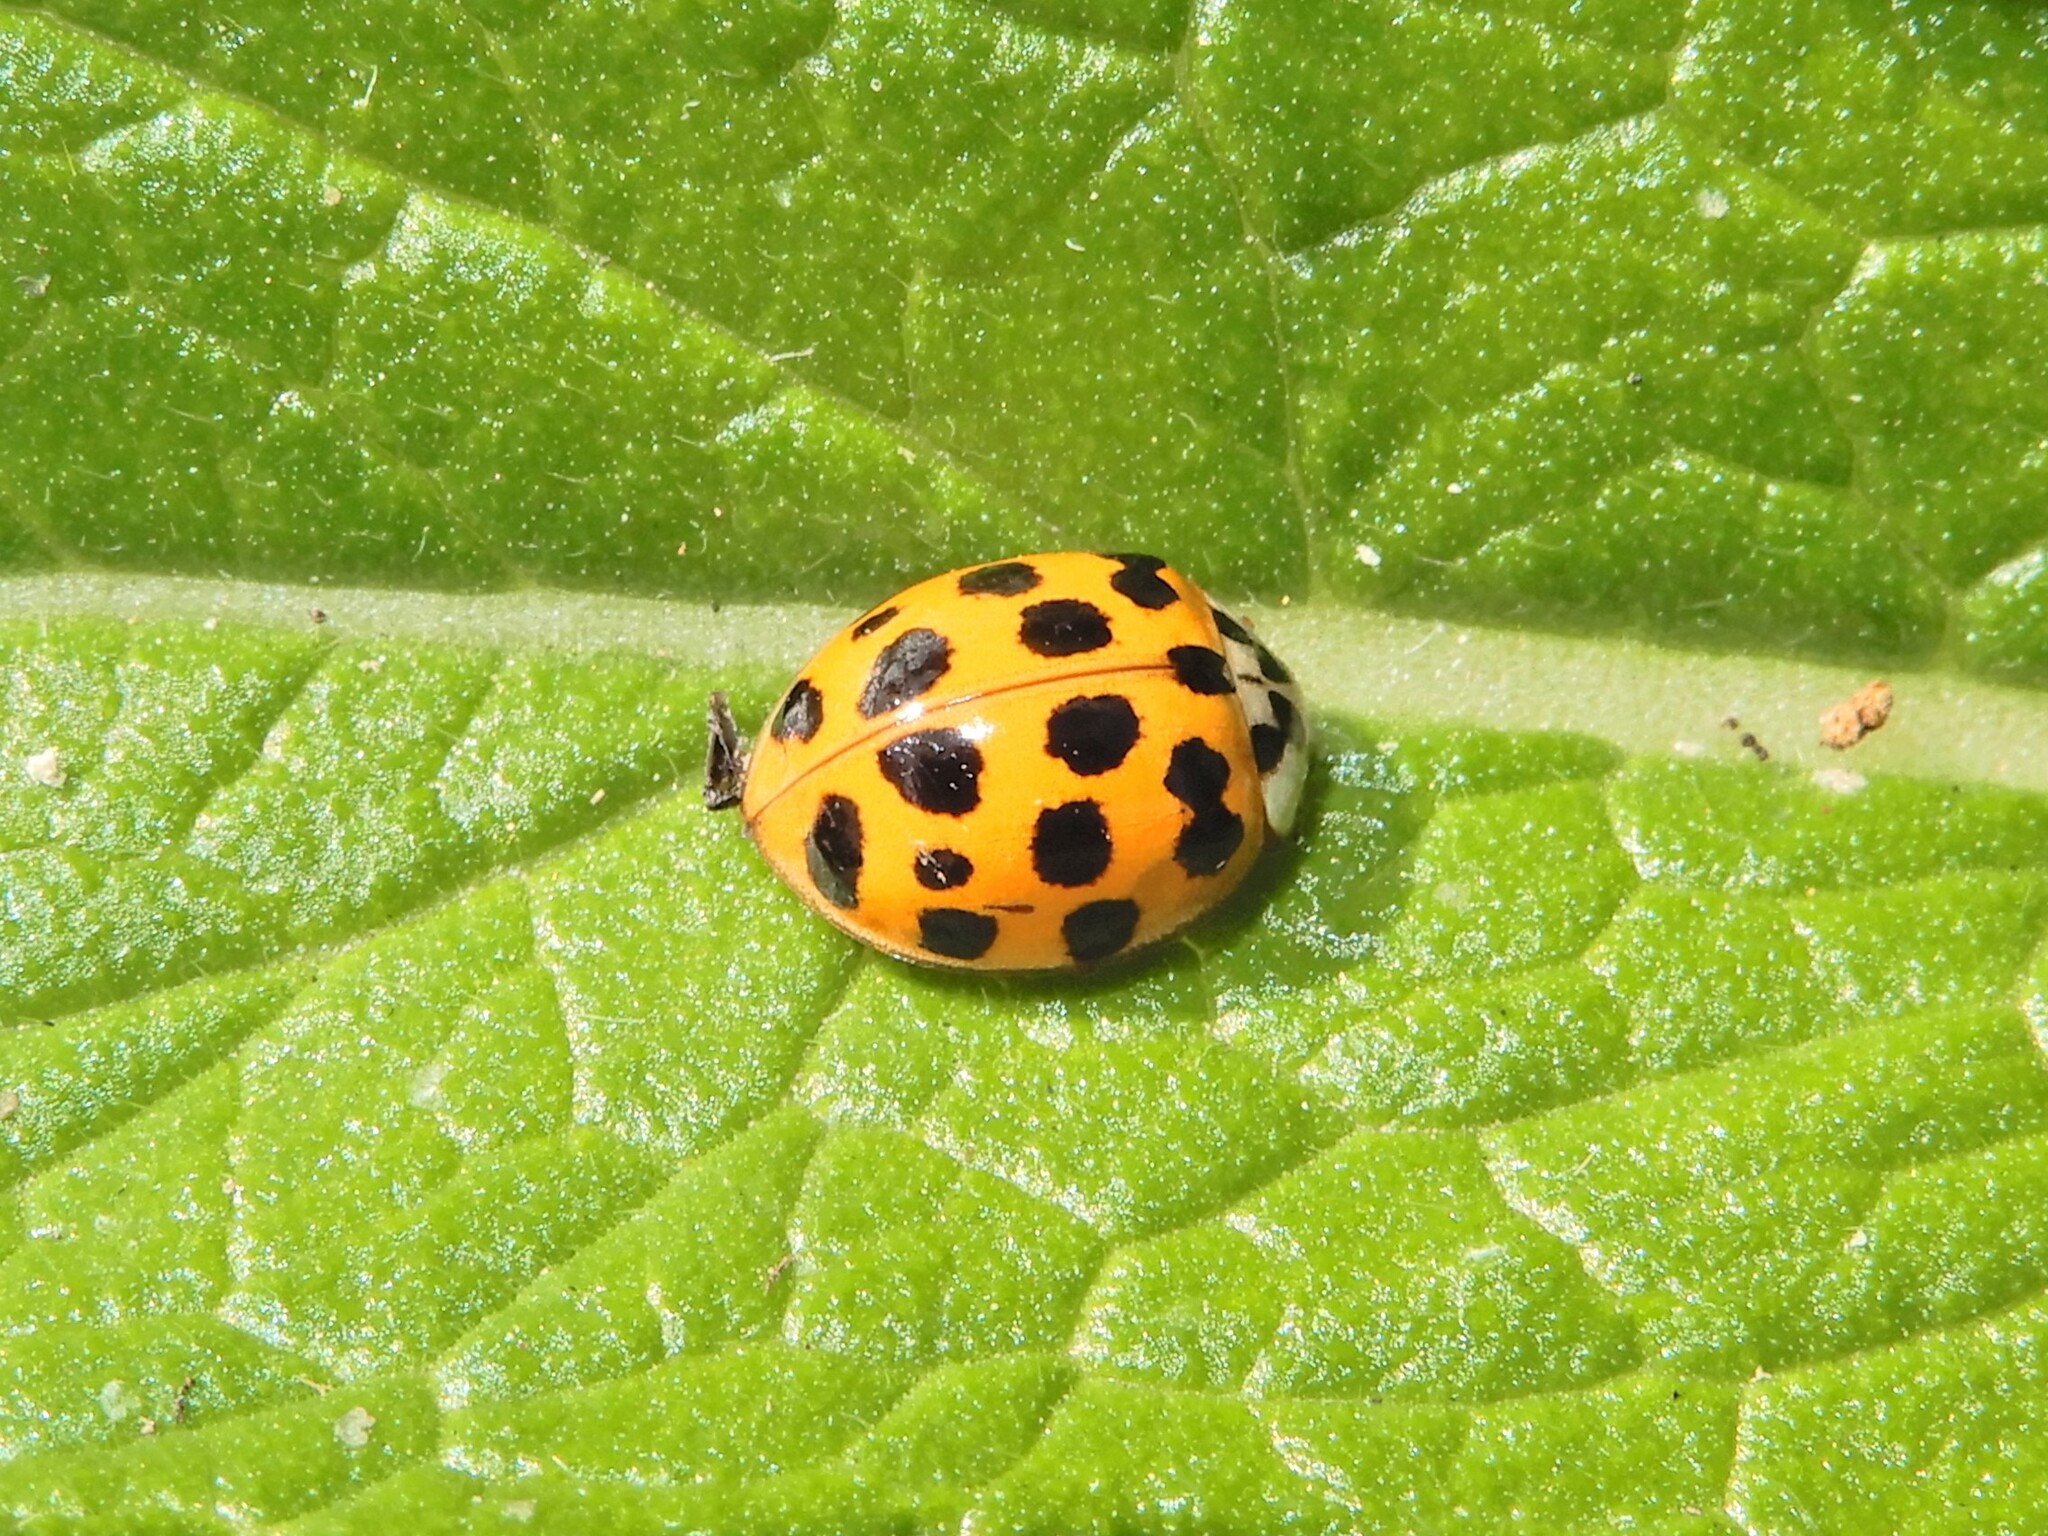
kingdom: Animalia
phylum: Arthropoda
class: Insecta
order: Coleoptera
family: Coccinellidae
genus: Harmonia
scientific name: Harmonia axyridis
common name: Harlequin ladybird
